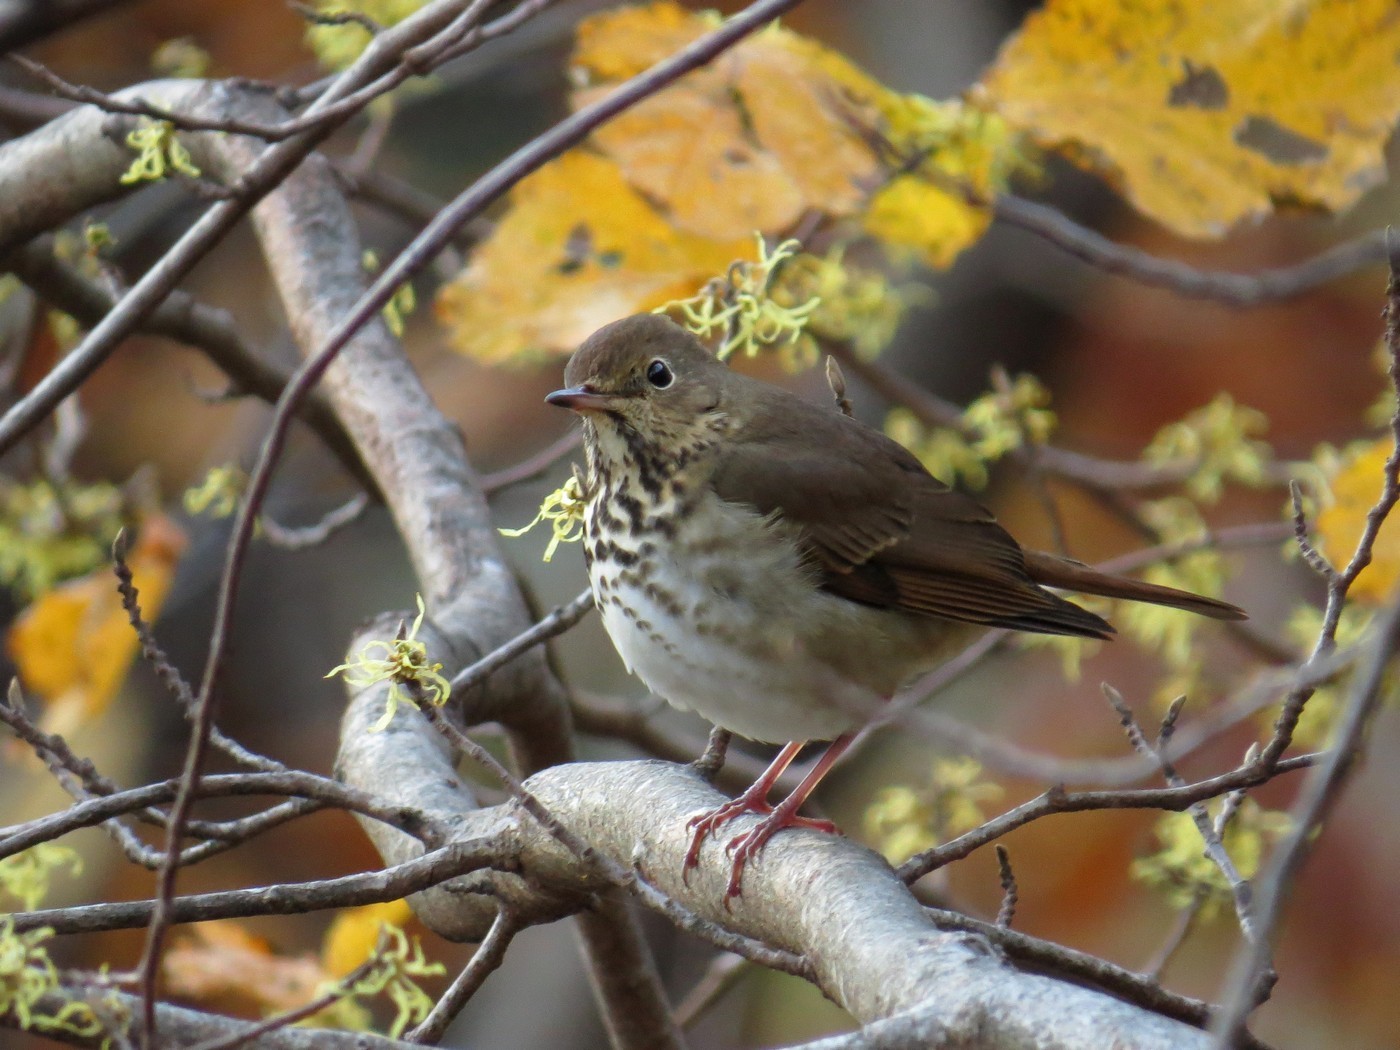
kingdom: Animalia
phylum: Chordata
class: Aves
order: Passeriformes
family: Turdidae
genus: Catharus
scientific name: Catharus guttatus
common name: Hermit thrush
